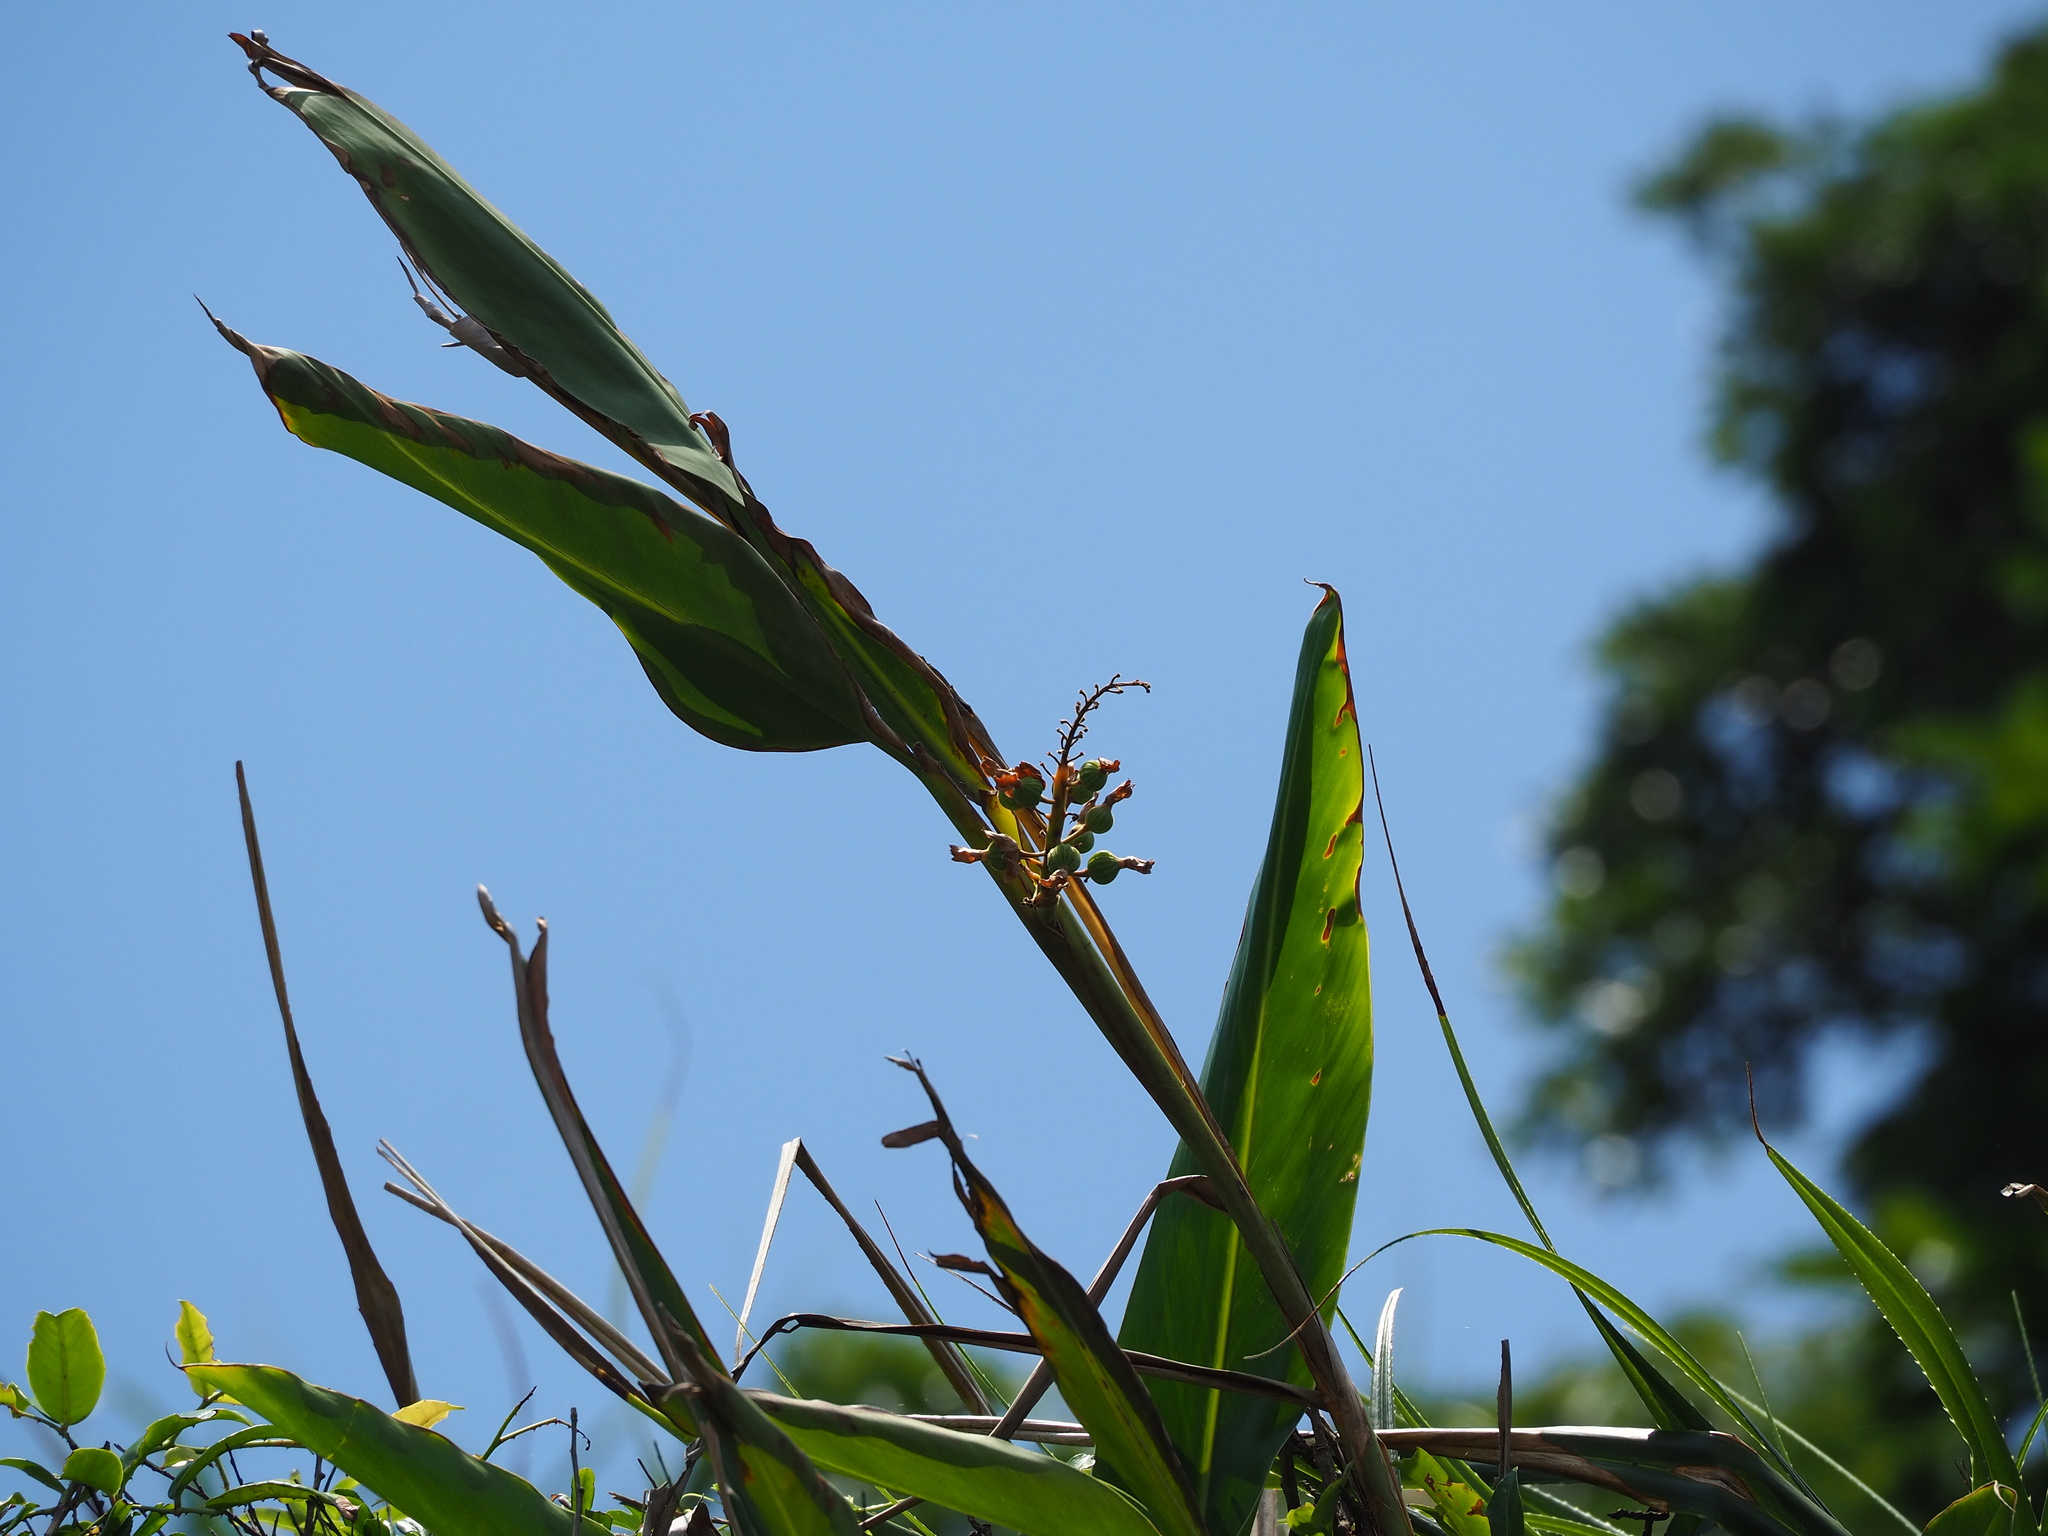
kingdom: Plantae
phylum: Tracheophyta
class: Liliopsida
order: Zingiberales
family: Zingiberaceae
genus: Alpinia
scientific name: Alpinia zerumbet
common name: Shellplant
